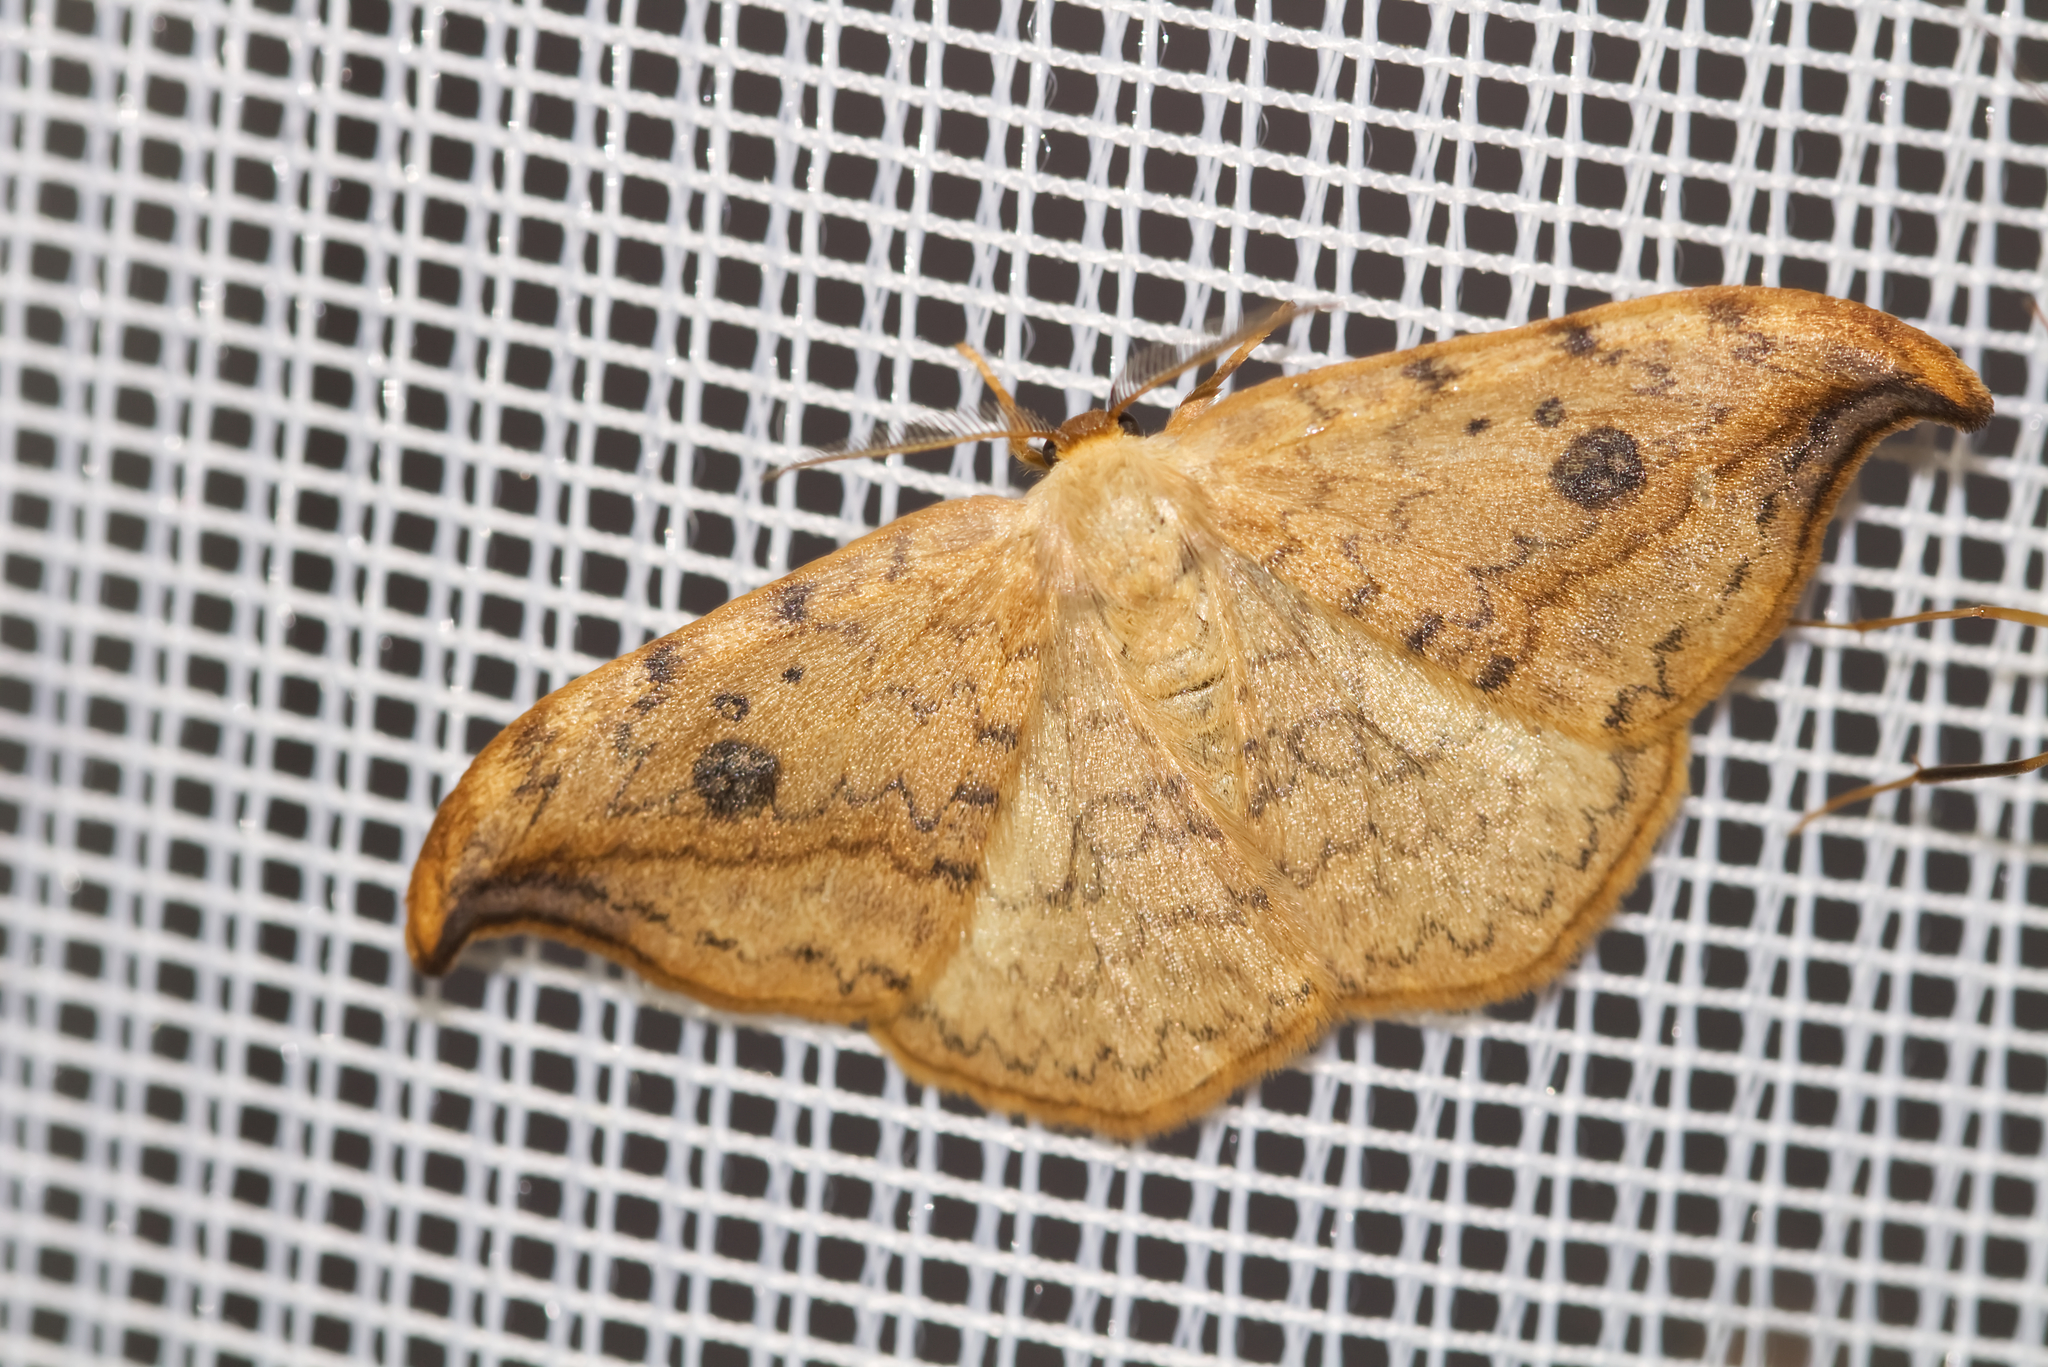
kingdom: Animalia
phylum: Arthropoda
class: Insecta
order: Lepidoptera
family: Drepanidae
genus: Drepana
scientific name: Drepana falcataria
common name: Pebble hook-tip
